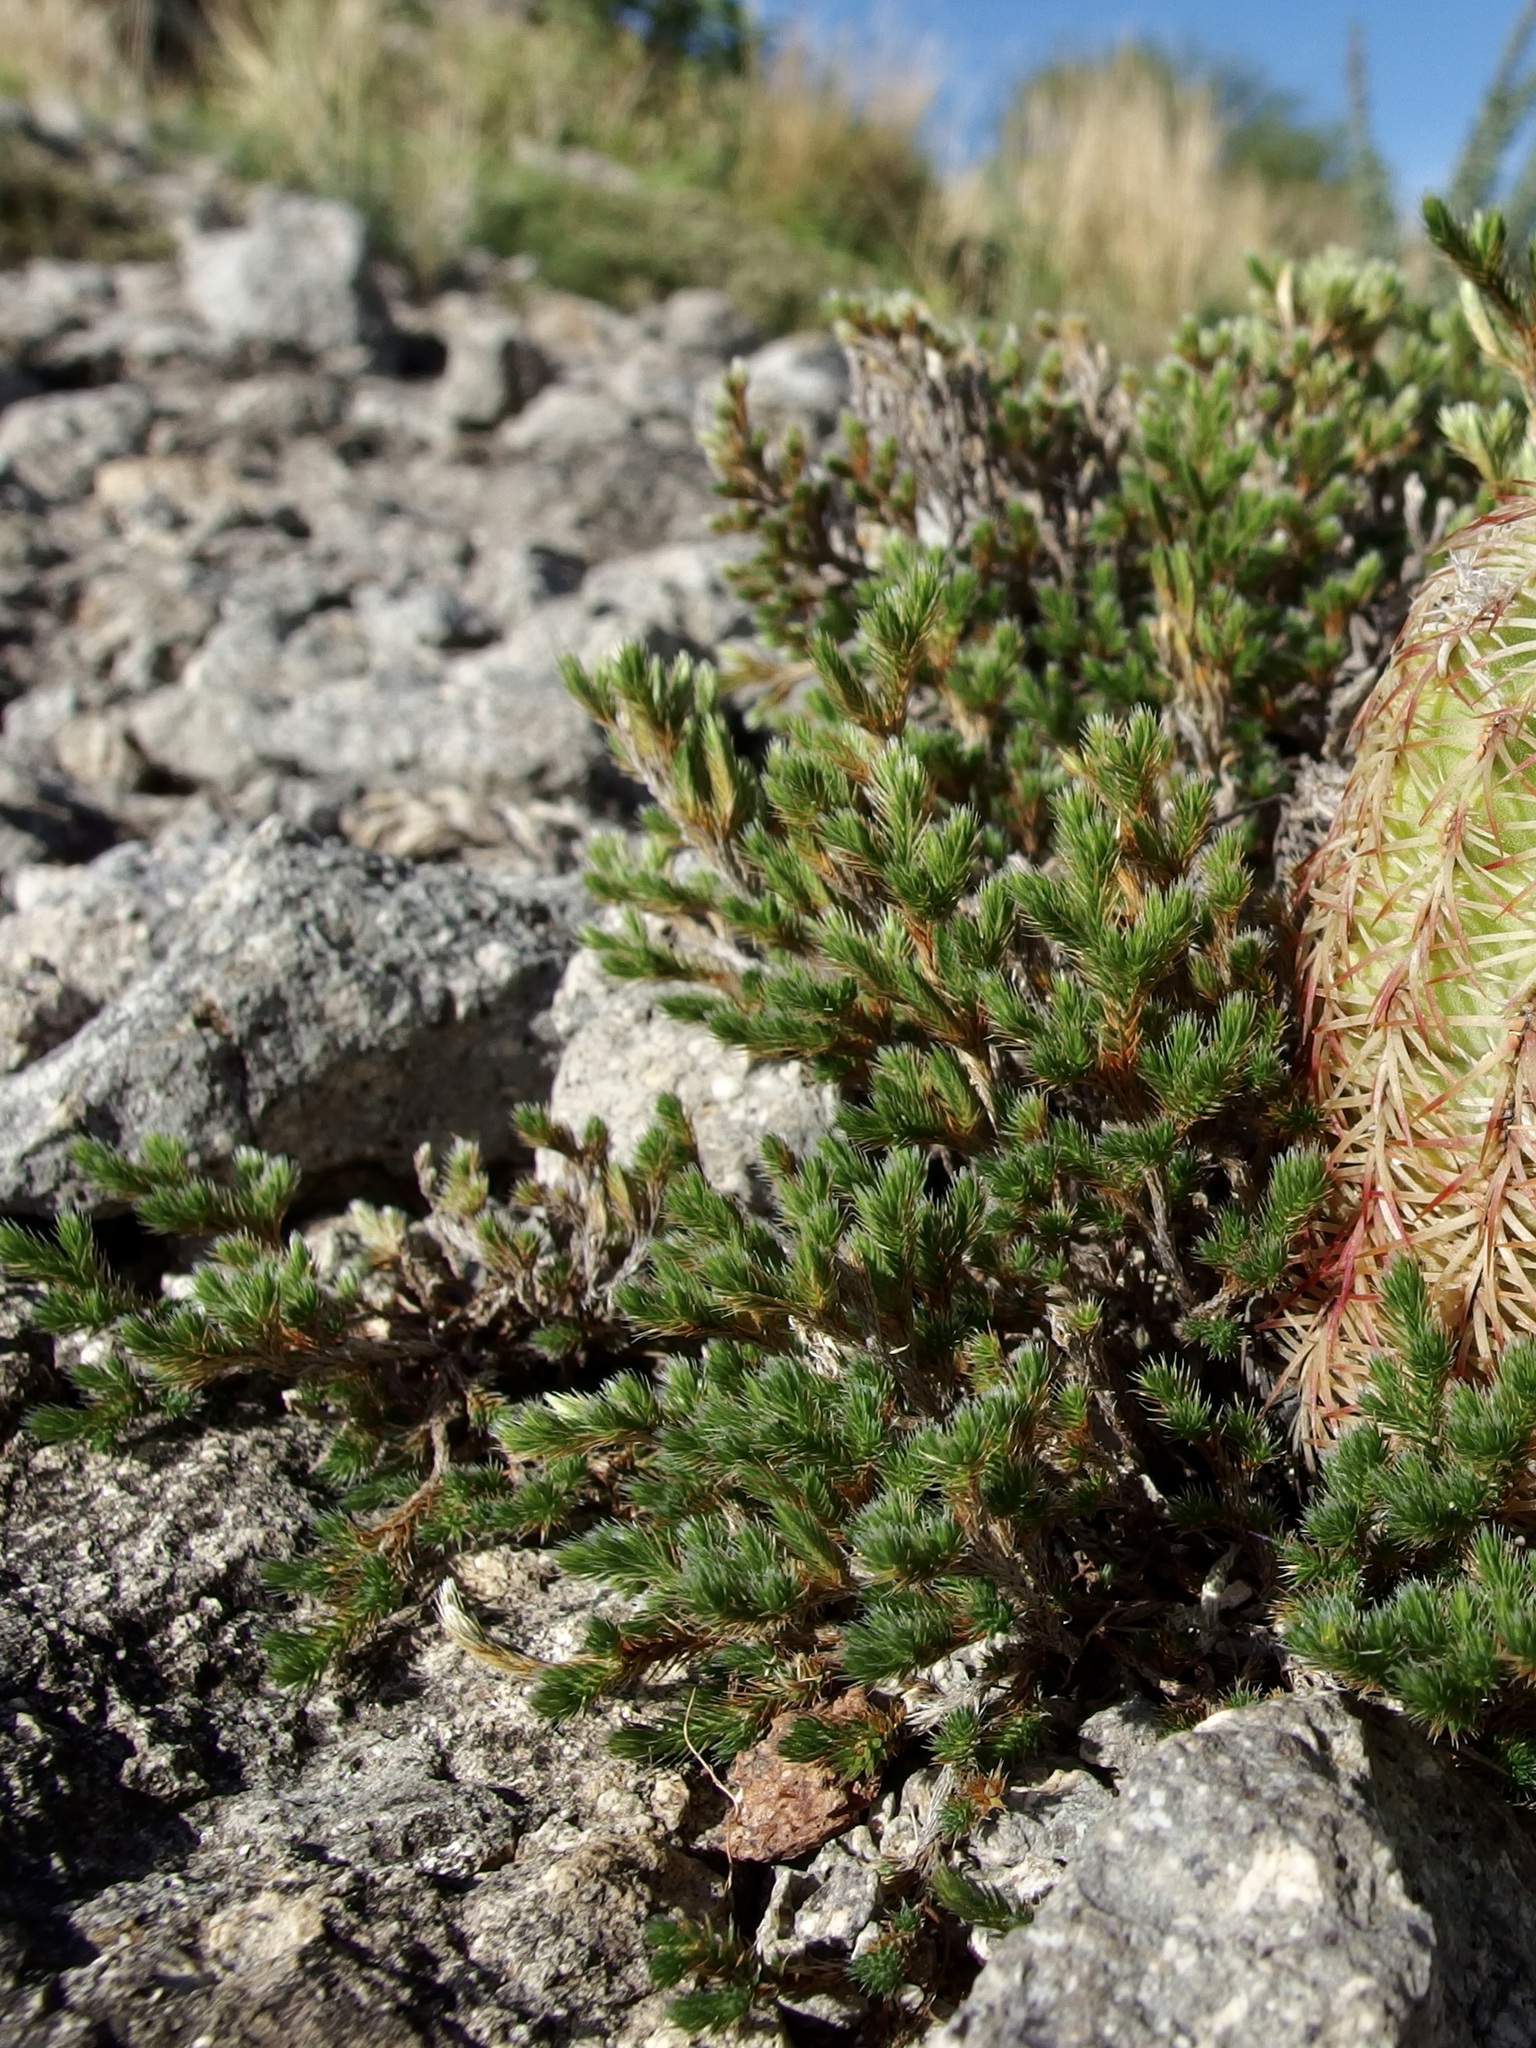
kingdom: Plantae
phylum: Tracheophyta
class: Lycopodiopsida
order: Selaginellales
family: Selaginellaceae
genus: Selaginella
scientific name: Selaginella rupincola
